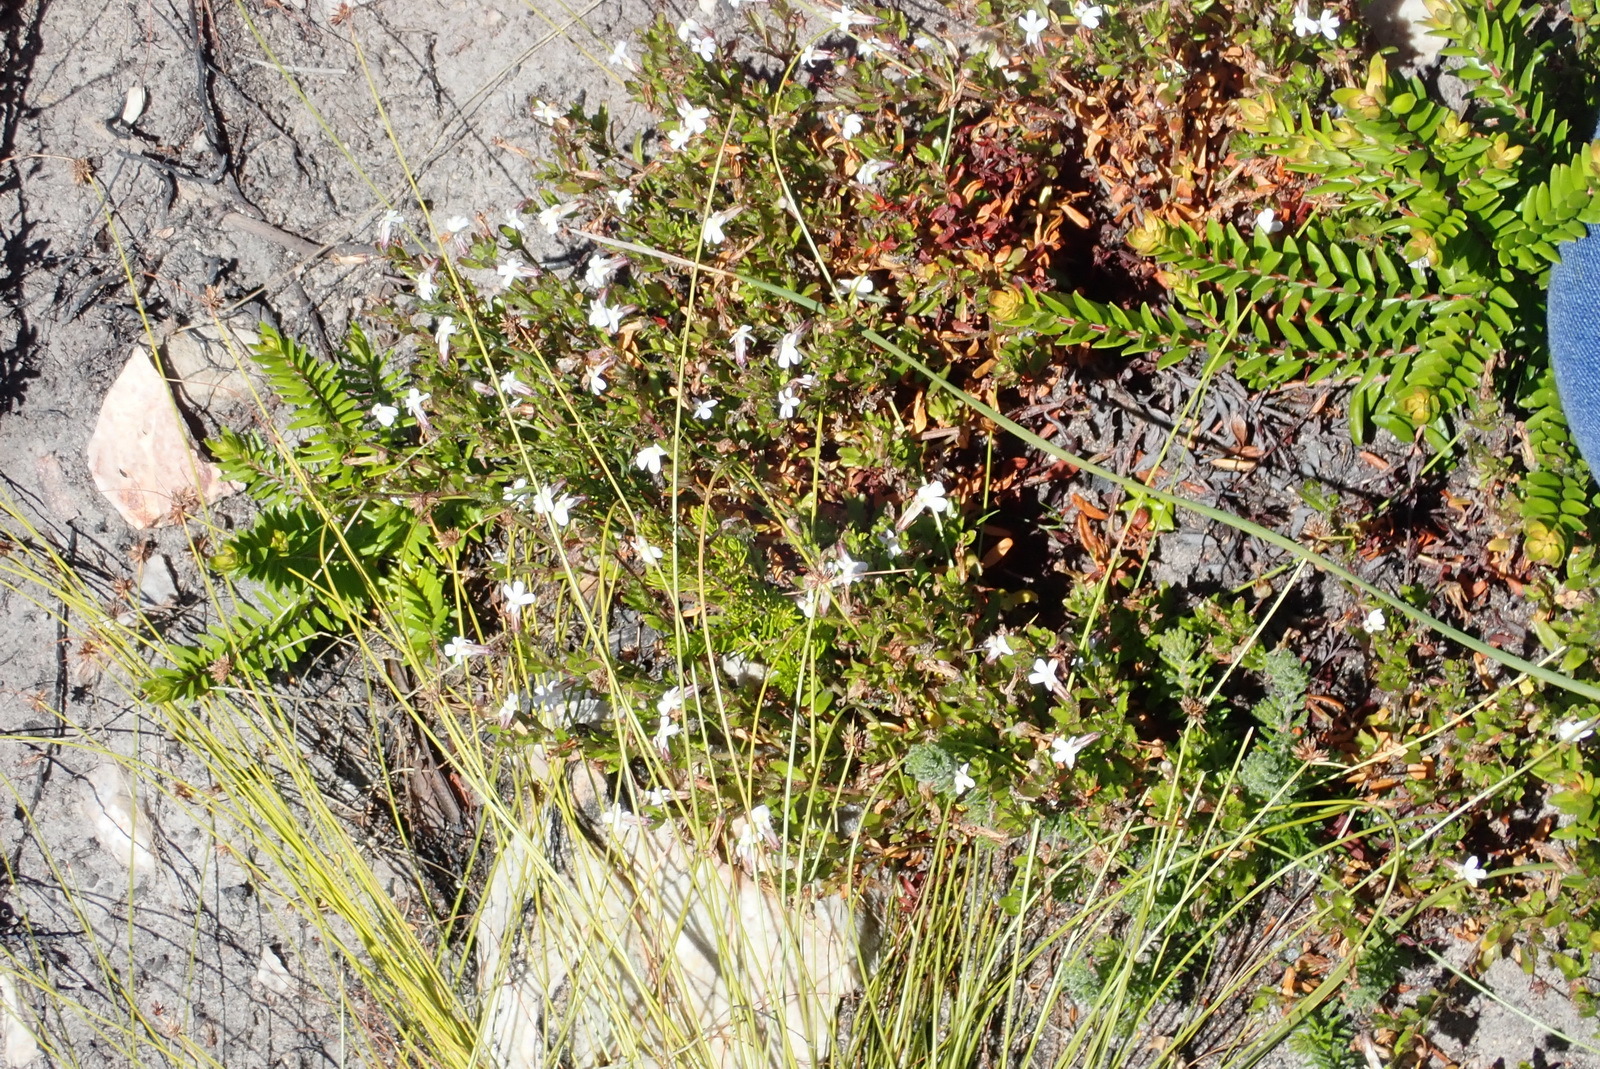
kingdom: Plantae
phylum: Tracheophyta
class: Magnoliopsida
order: Asterales
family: Campanulaceae
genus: Lobelia
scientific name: Lobelia neglecta
